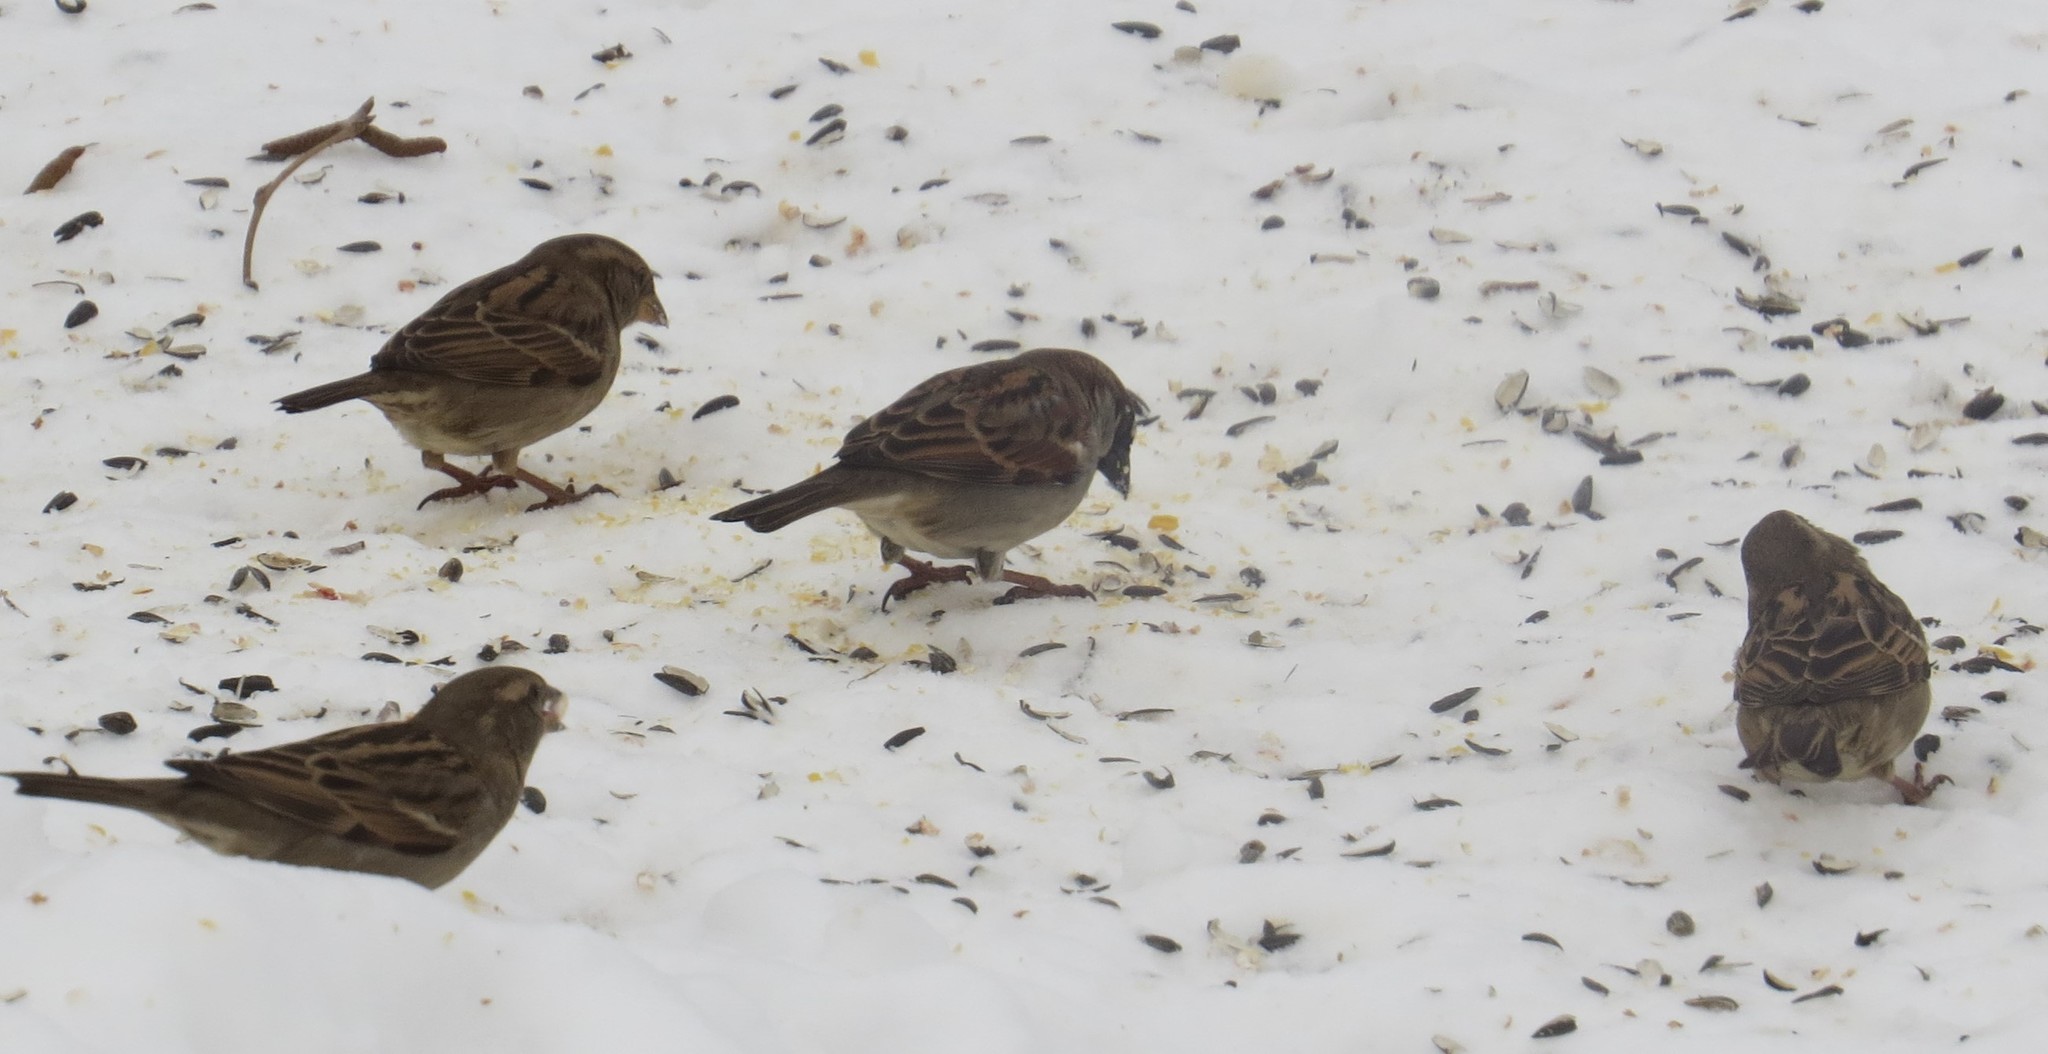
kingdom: Animalia
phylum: Chordata
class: Aves
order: Passeriformes
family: Passeridae
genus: Passer
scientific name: Passer domesticus
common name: House sparrow
